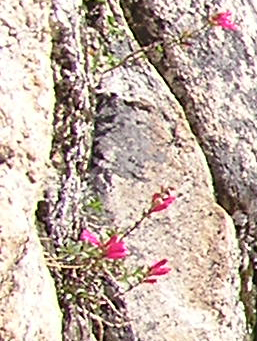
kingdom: Plantae
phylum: Tracheophyta
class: Magnoliopsida
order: Lamiales
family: Plantaginaceae
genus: Penstemon
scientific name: Penstemon newberryi
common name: Mountain-pride
